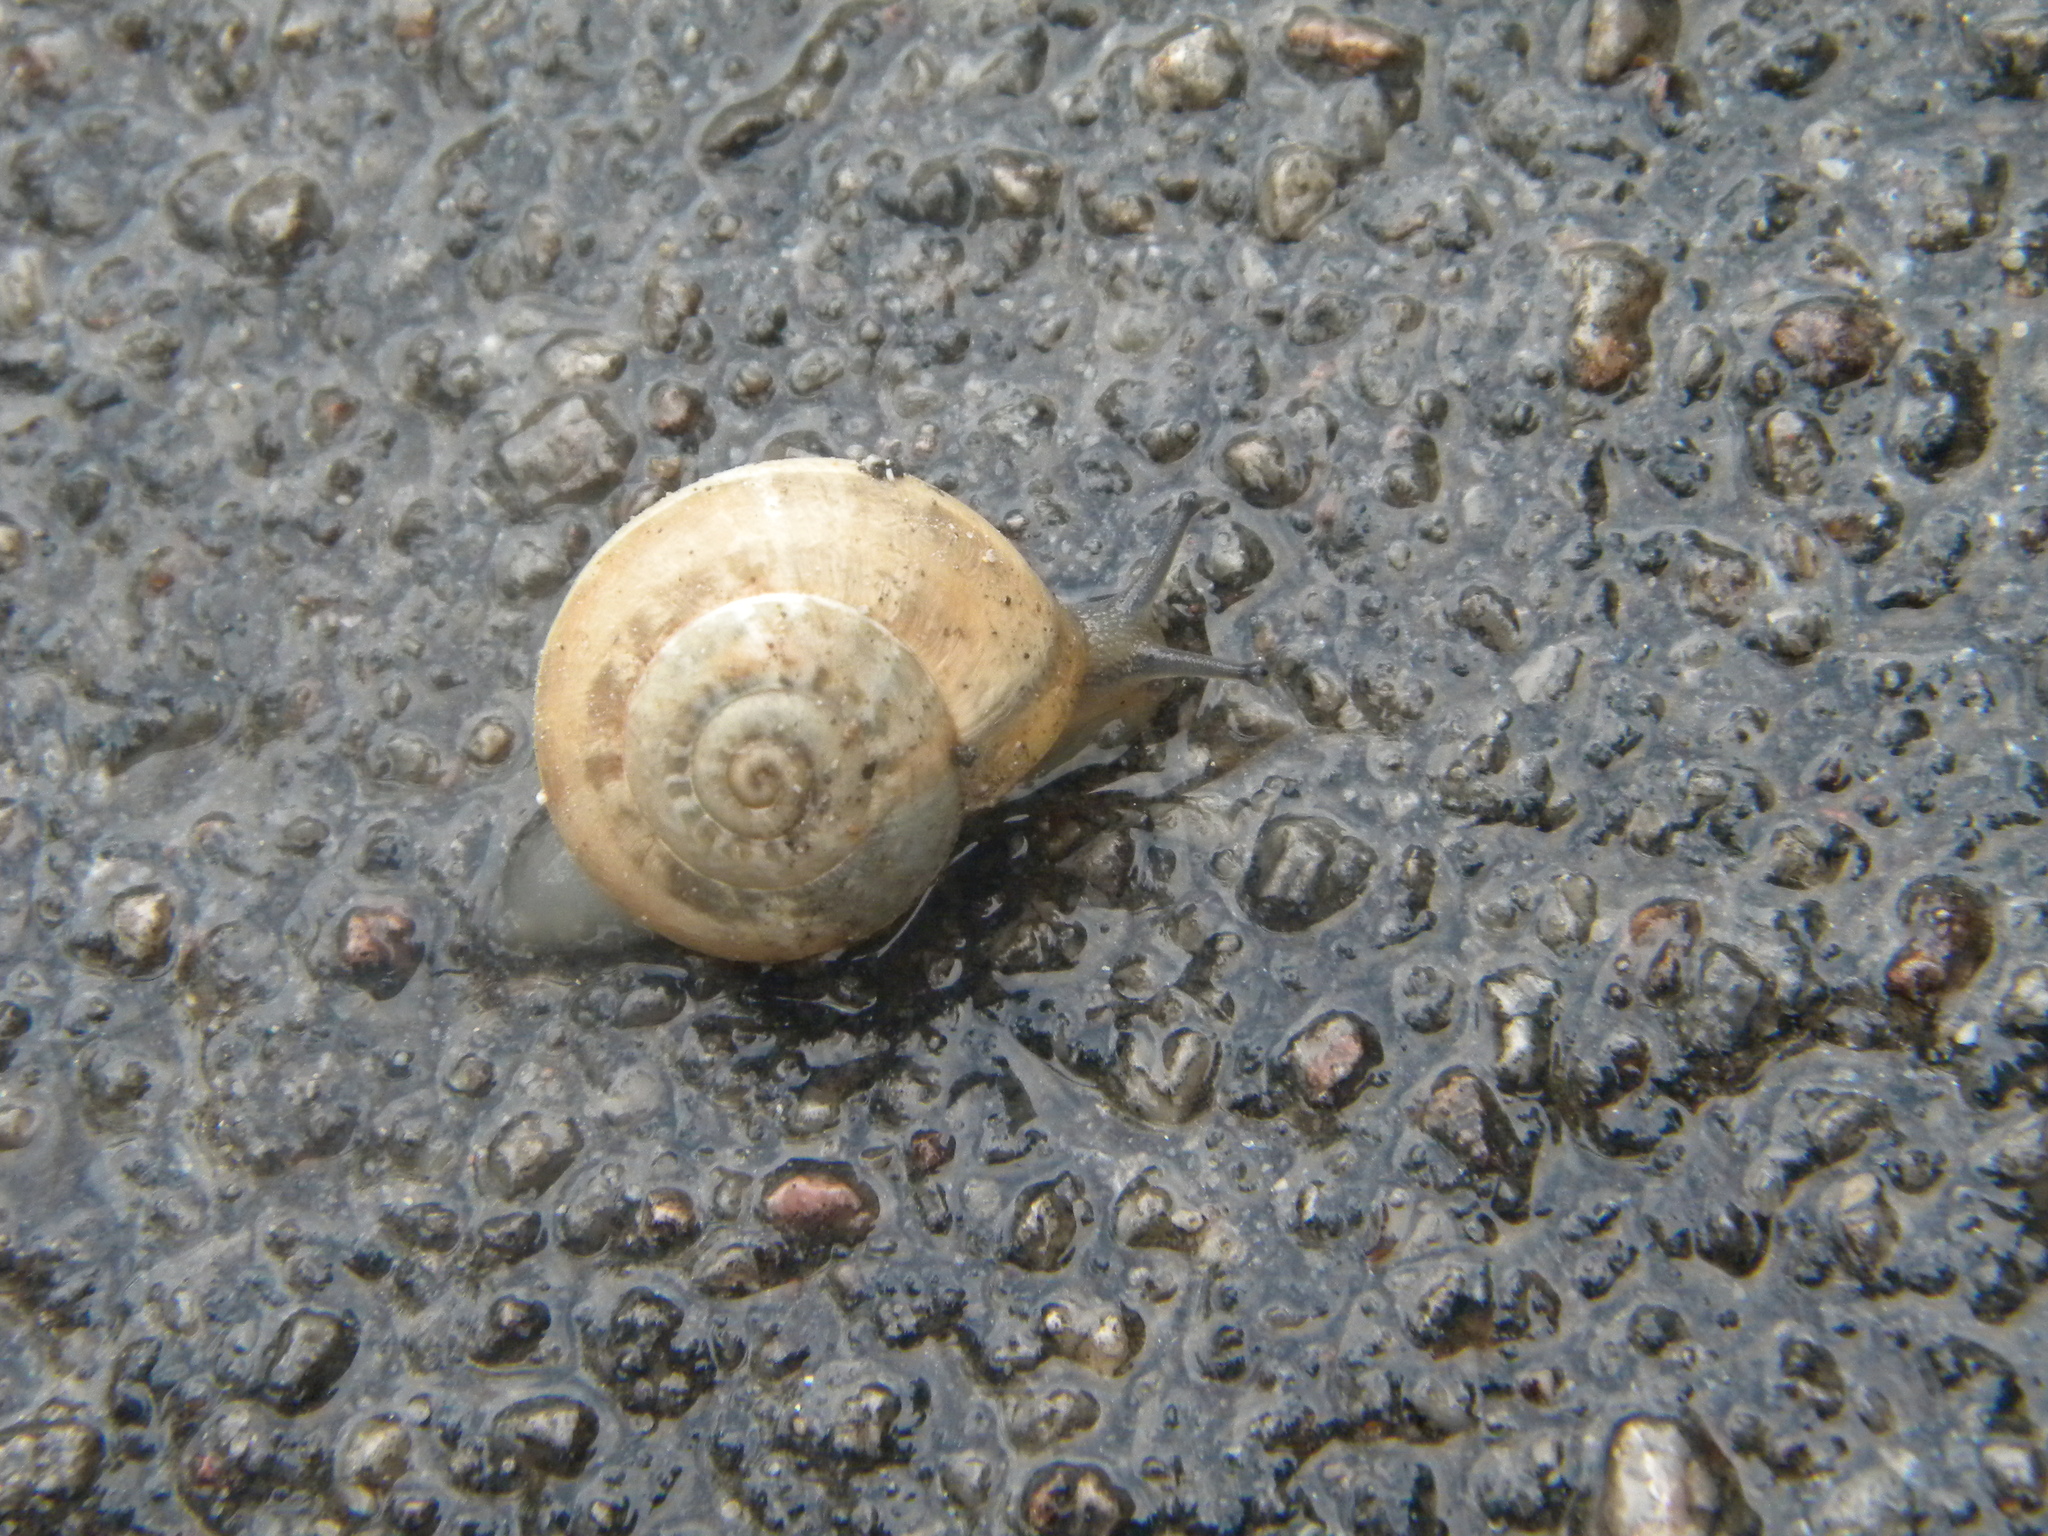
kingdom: Animalia
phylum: Mollusca
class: Gastropoda
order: Stylommatophora
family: Helicidae
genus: Eobania
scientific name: Eobania vermiculata
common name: Chocolateband snail
